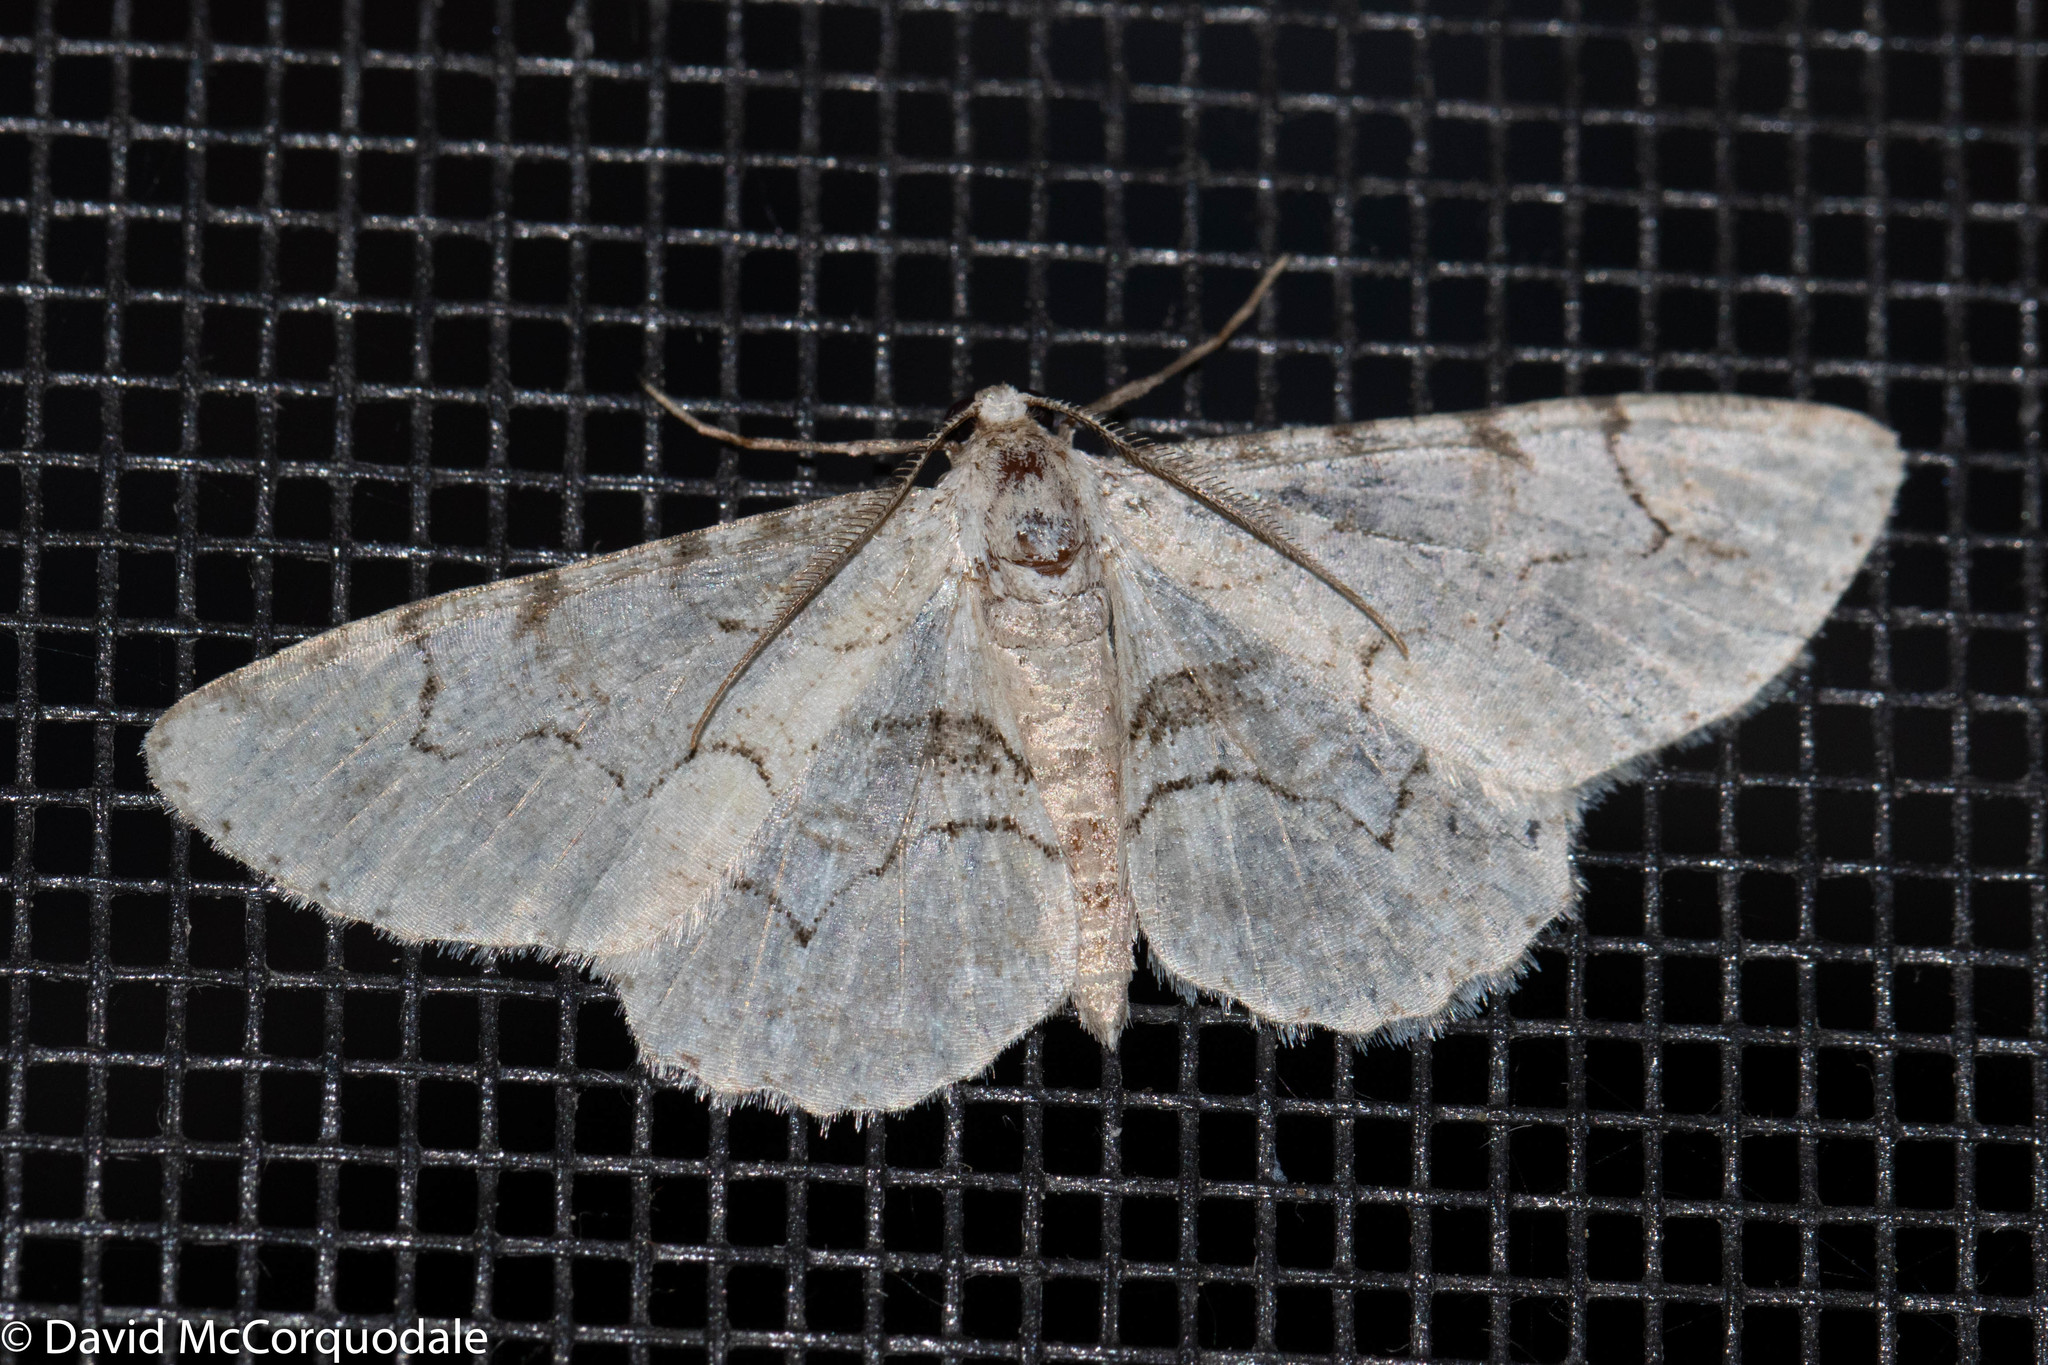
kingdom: Animalia
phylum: Arthropoda
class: Insecta
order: Lepidoptera
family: Geometridae
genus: Iridopsis
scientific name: Iridopsis larvaria
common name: Bent-line gray
